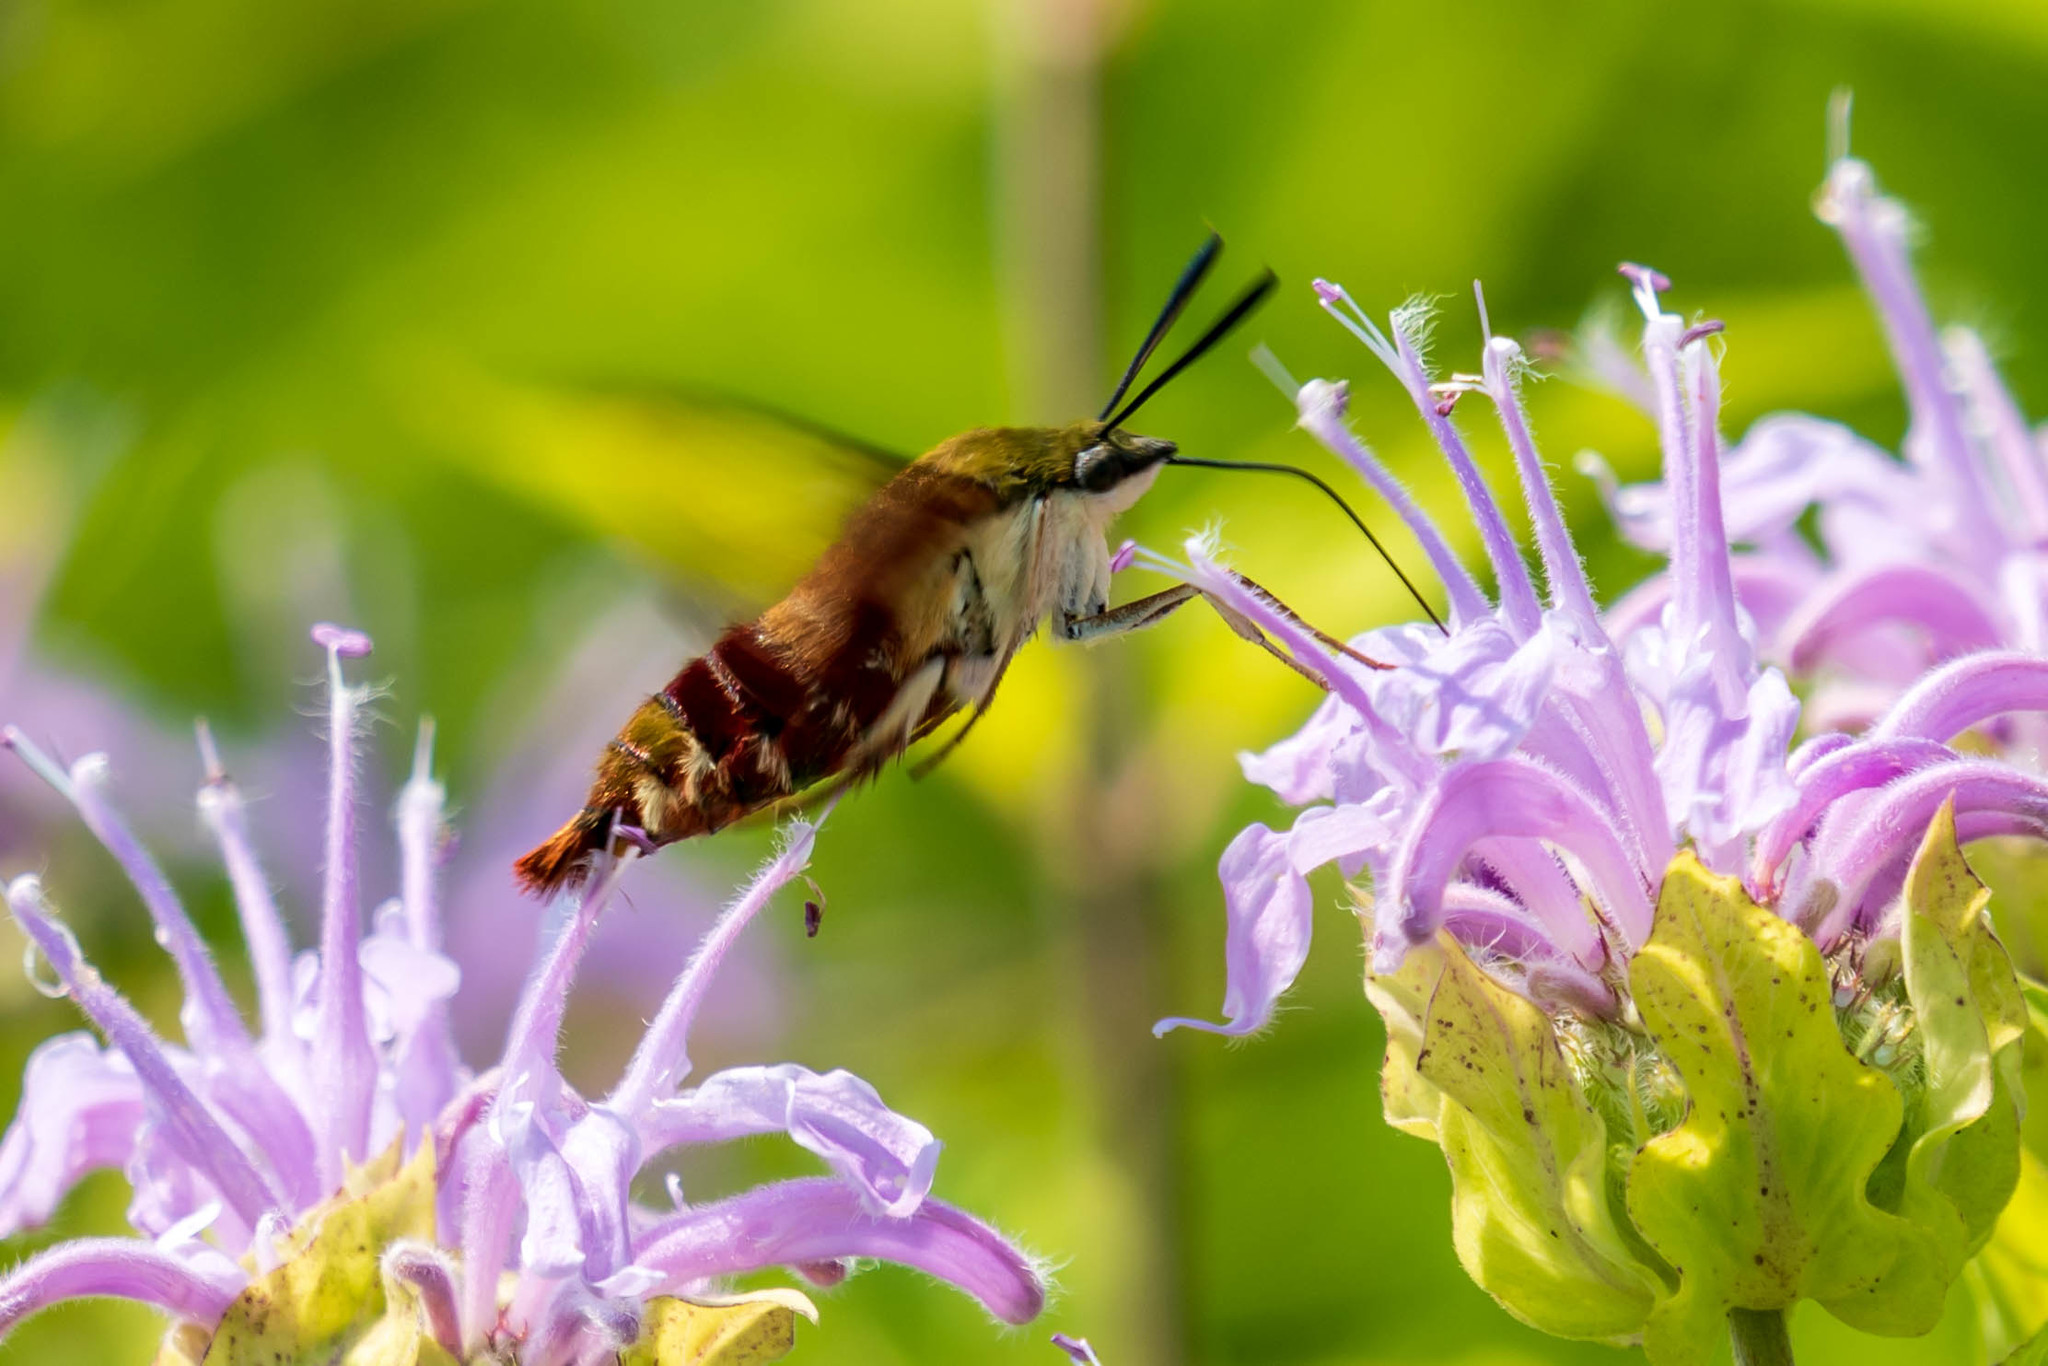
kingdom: Animalia
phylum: Arthropoda
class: Insecta
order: Lepidoptera
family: Sphingidae
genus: Hemaris
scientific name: Hemaris thysbe
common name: Common clear-wing
